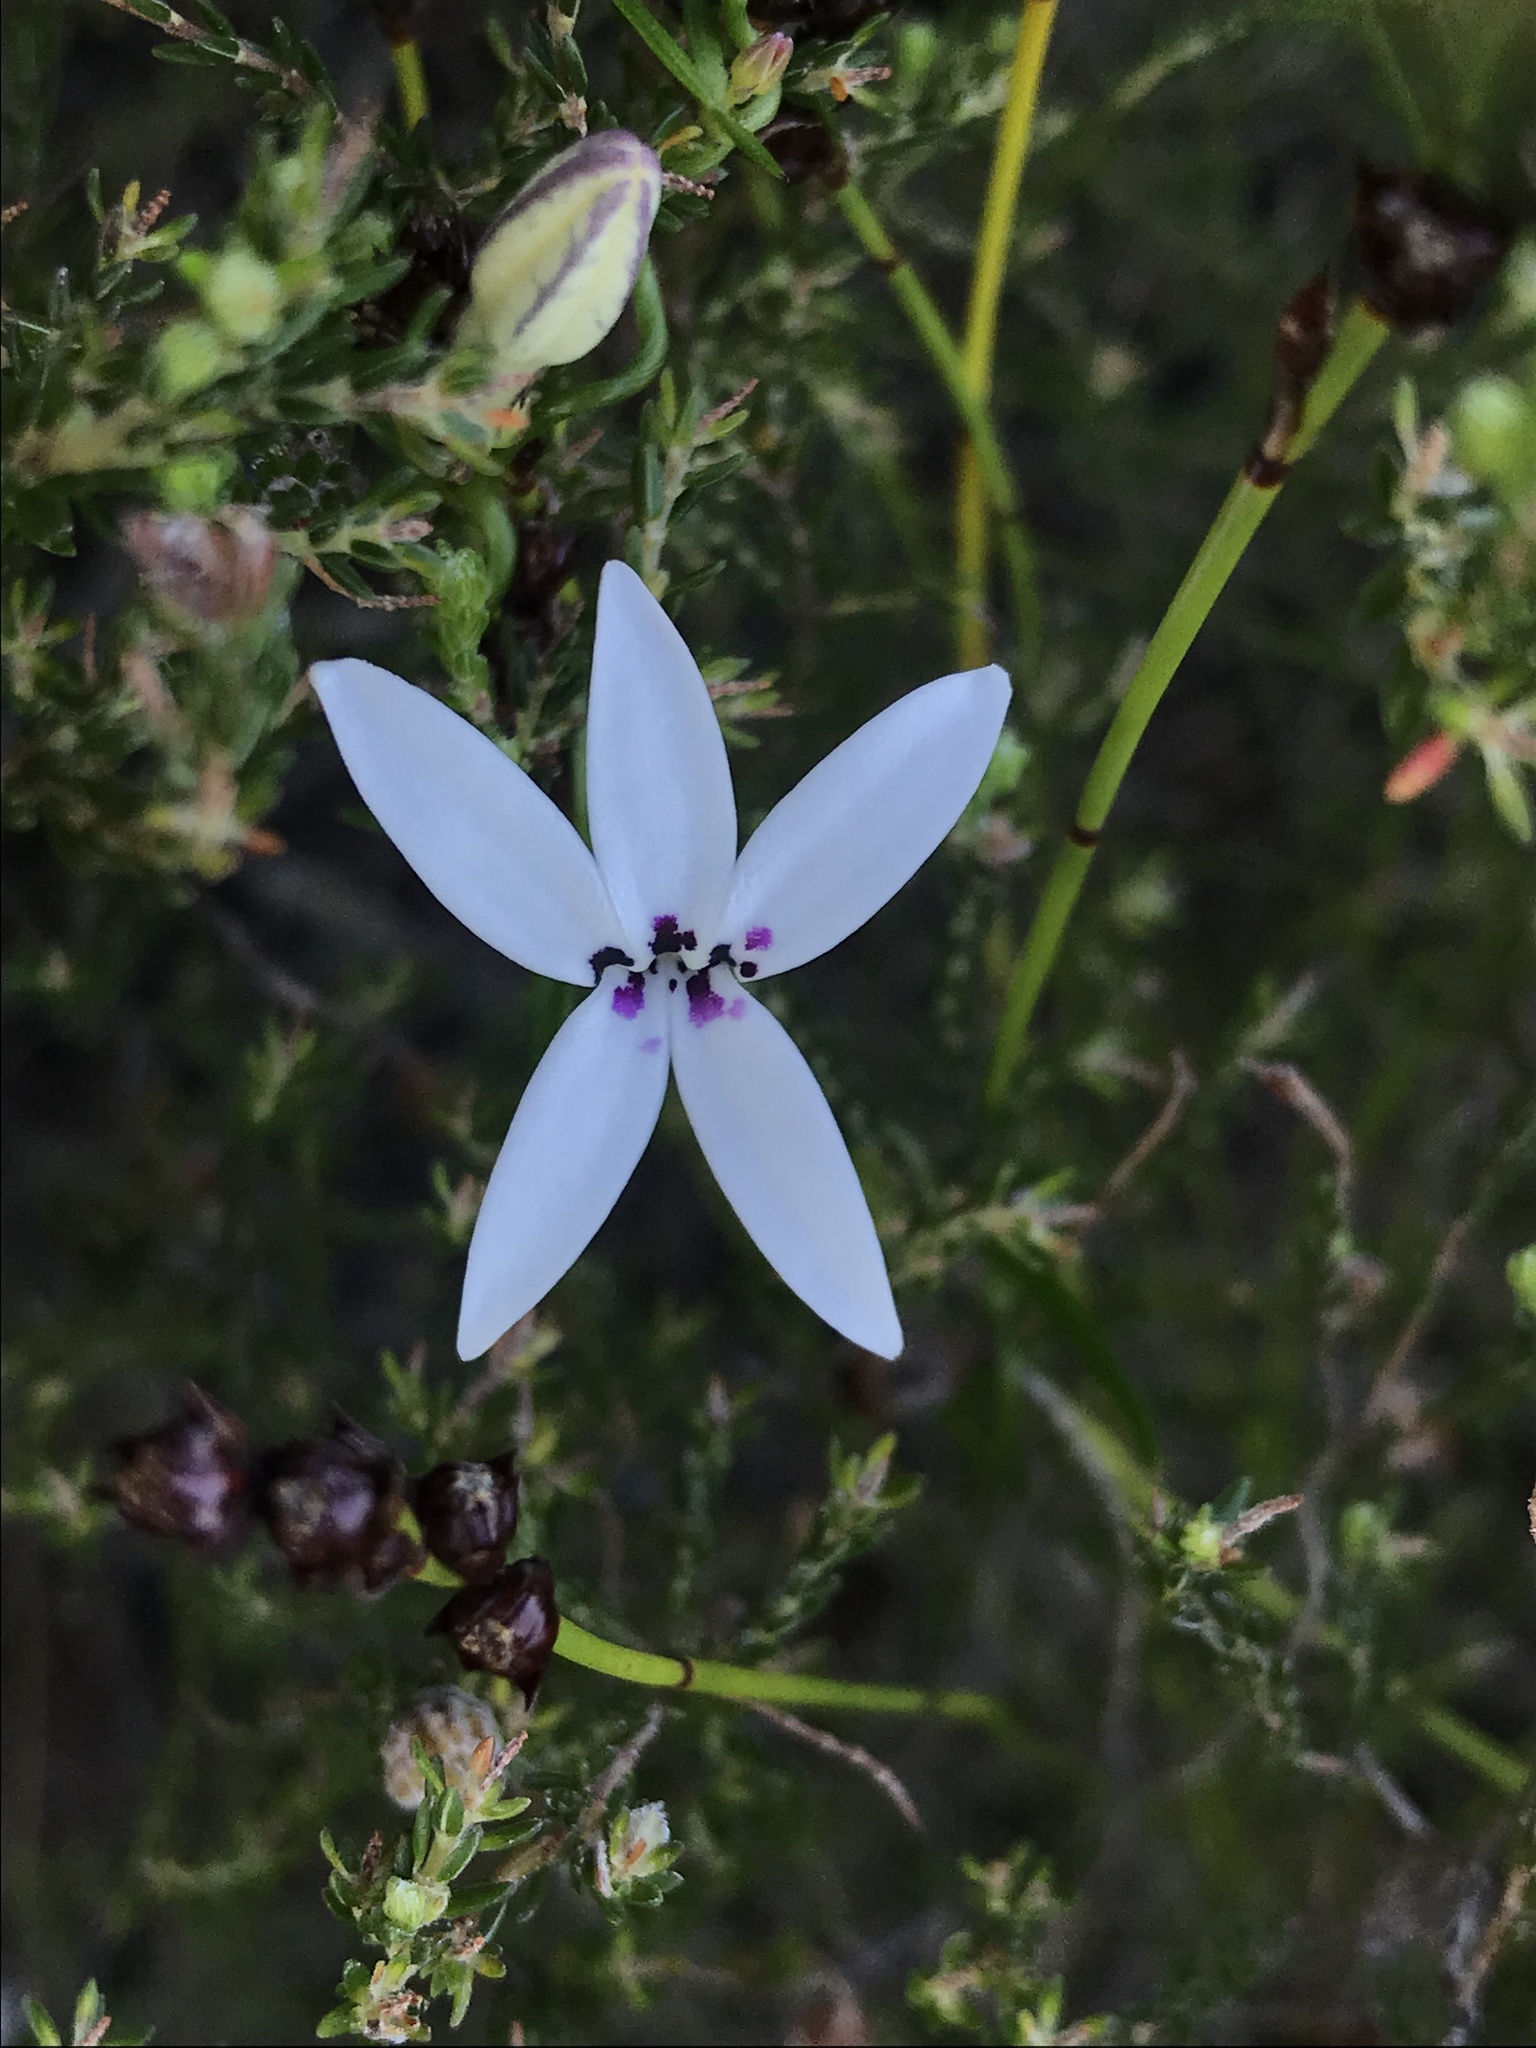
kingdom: Plantae
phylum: Tracheophyta
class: Magnoliopsida
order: Asterales
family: Campanulaceae
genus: Cyphia
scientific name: Cyphia volubilis
